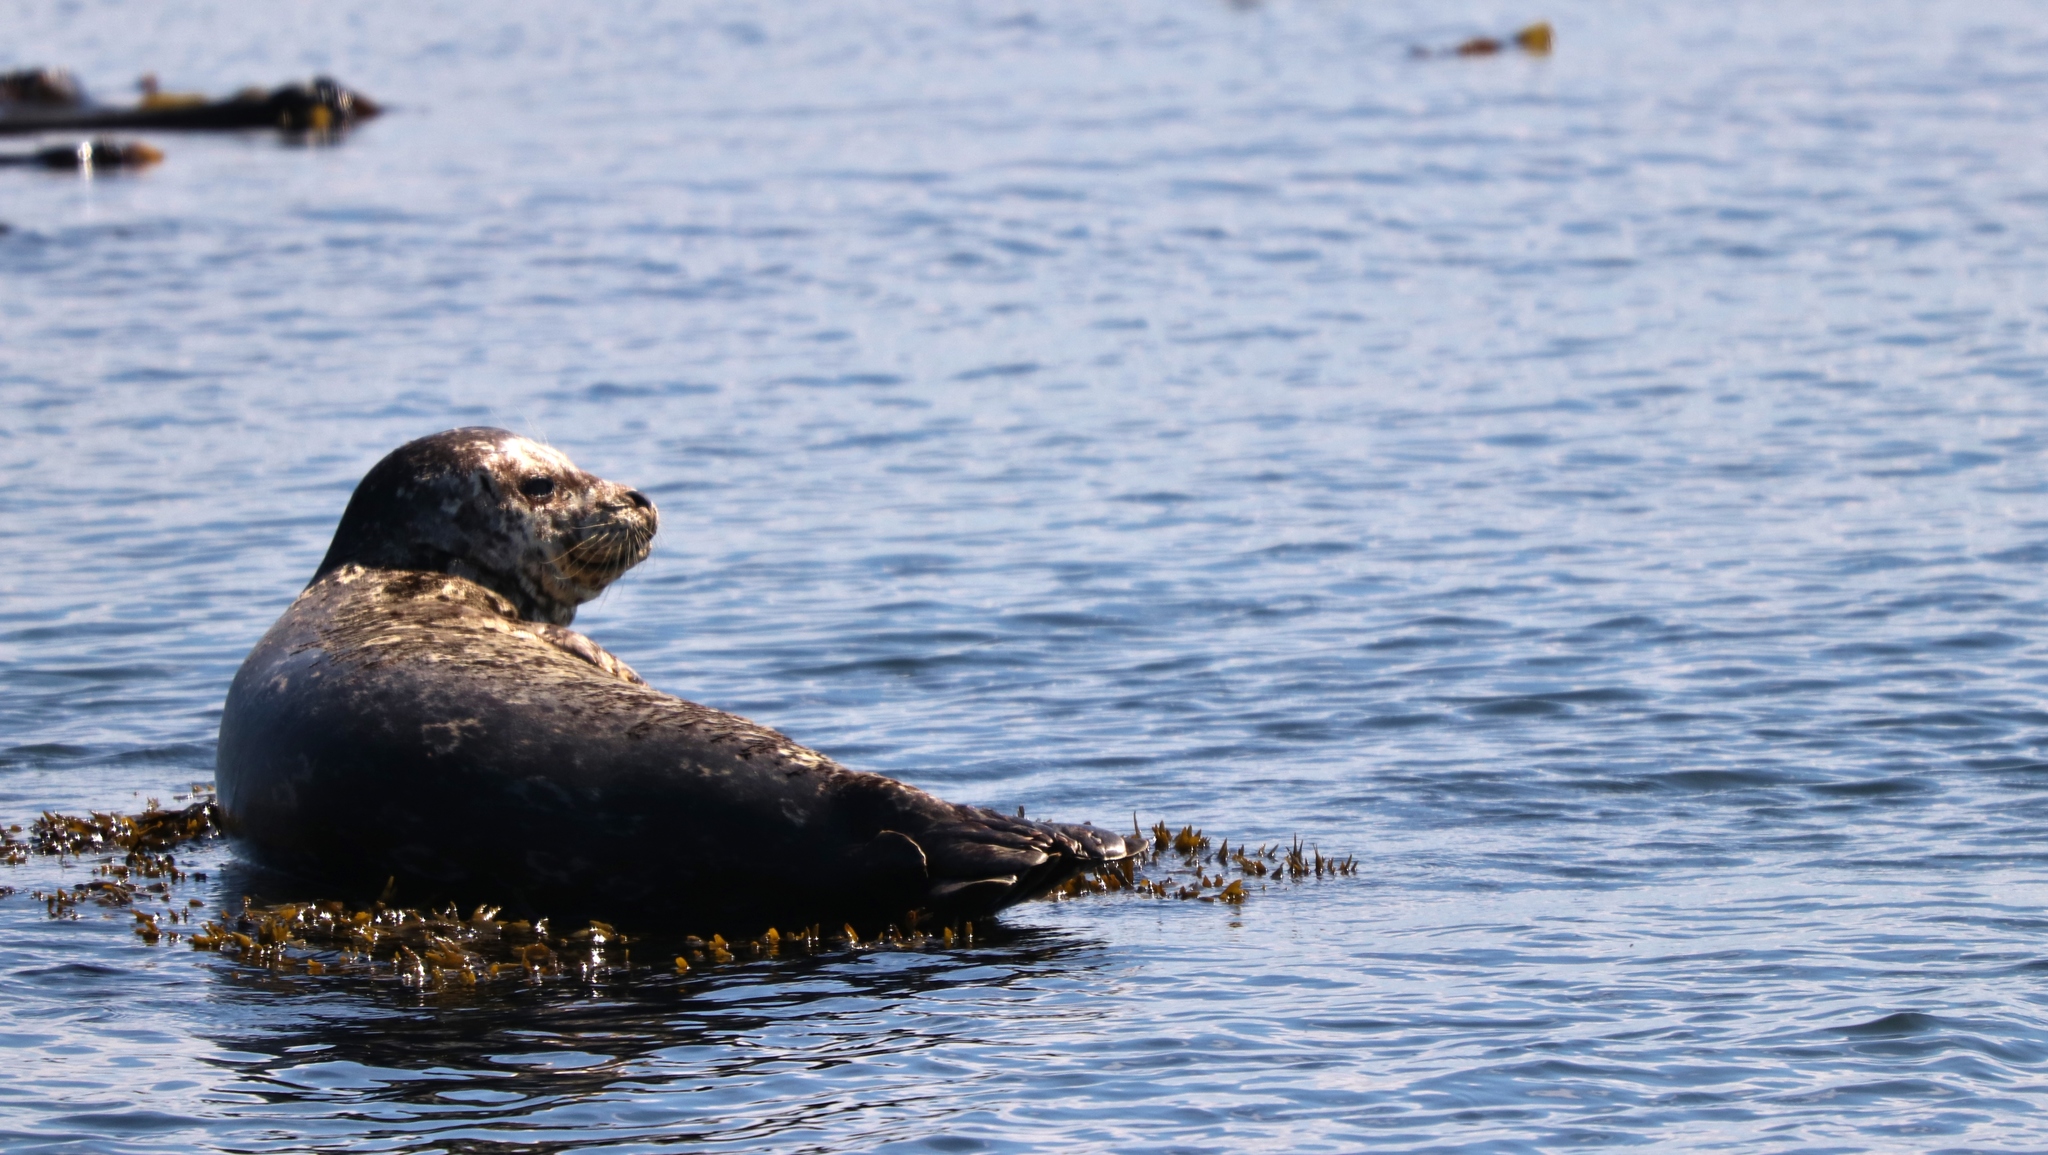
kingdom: Animalia
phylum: Chordata
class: Mammalia
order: Carnivora
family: Phocidae
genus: Phoca
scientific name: Phoca vitulina
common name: Harbor seal
